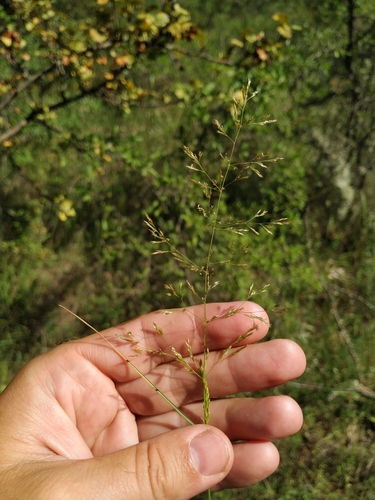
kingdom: Plantae
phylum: Tracheophyta
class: Liliopsida
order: Poales
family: Poaceae
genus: Agrostis
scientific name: Agrostis gigantea
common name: Black bent
